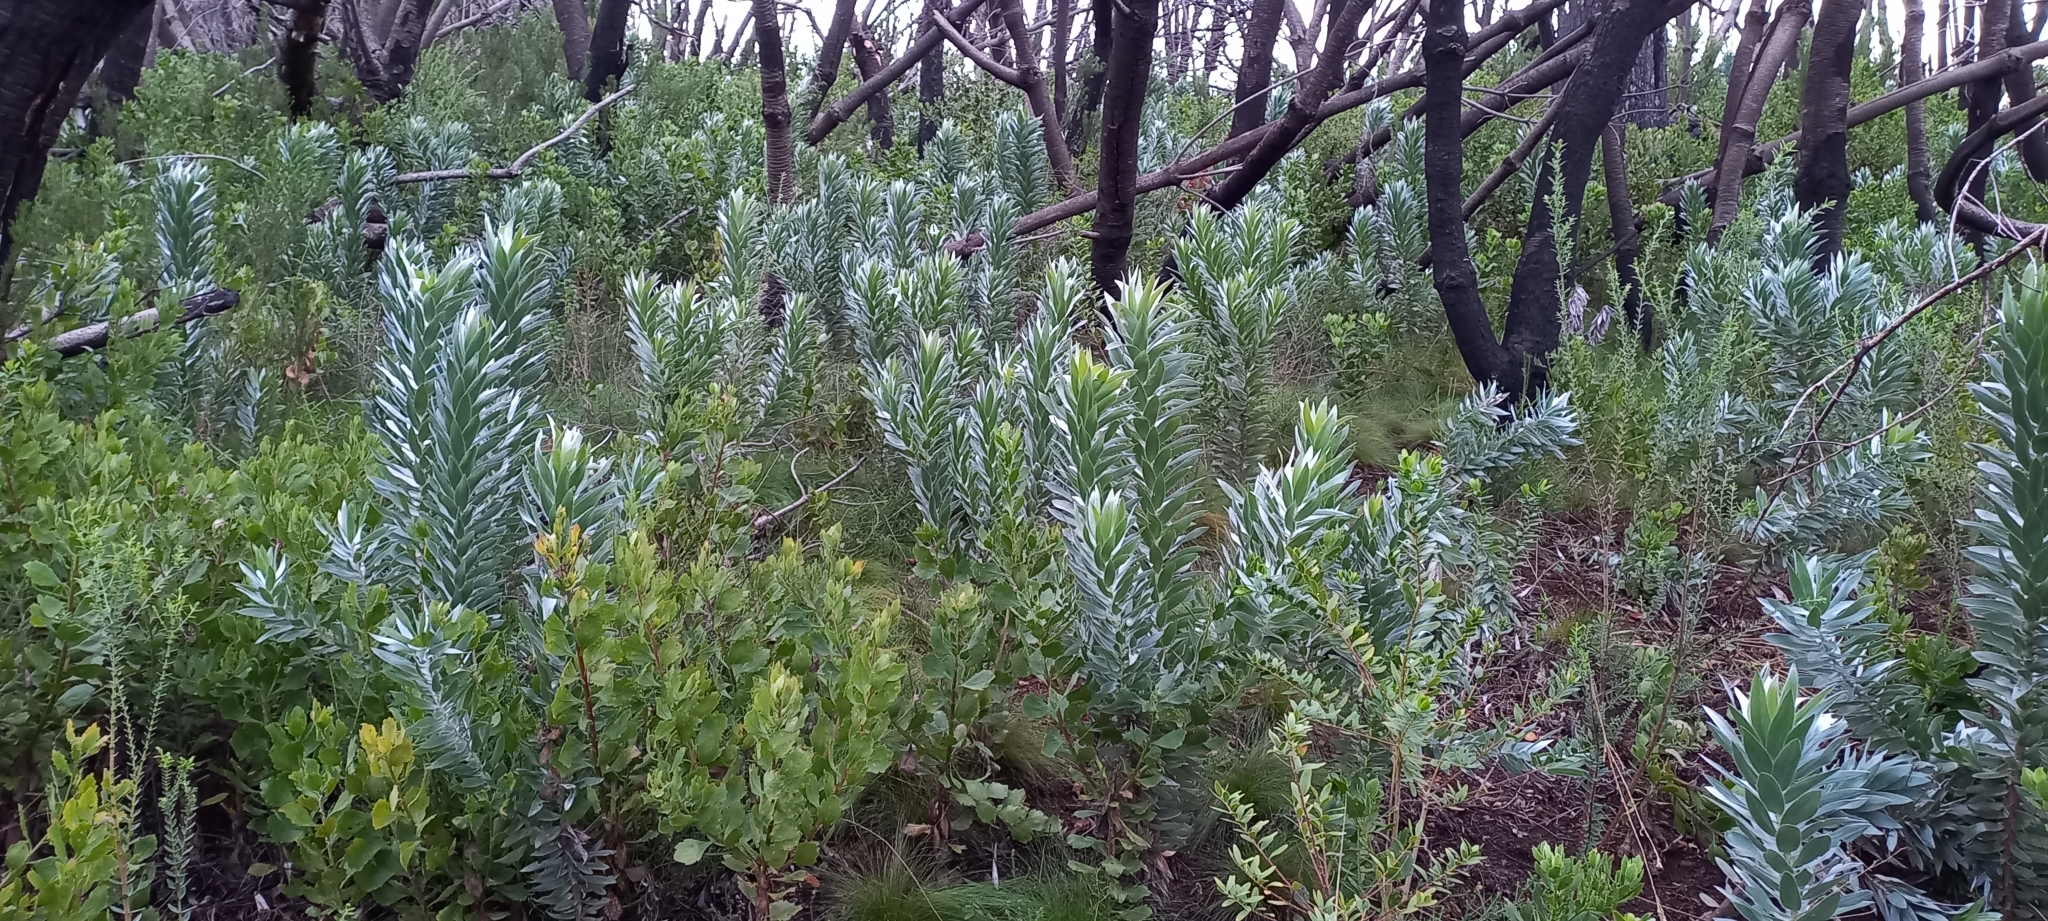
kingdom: Plantae
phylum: Tracheophyta
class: Magnoliopsida
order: Proteales
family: Proteaceae
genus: Leucadendron
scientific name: Leucadendron argenteum
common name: Cape silver tree
